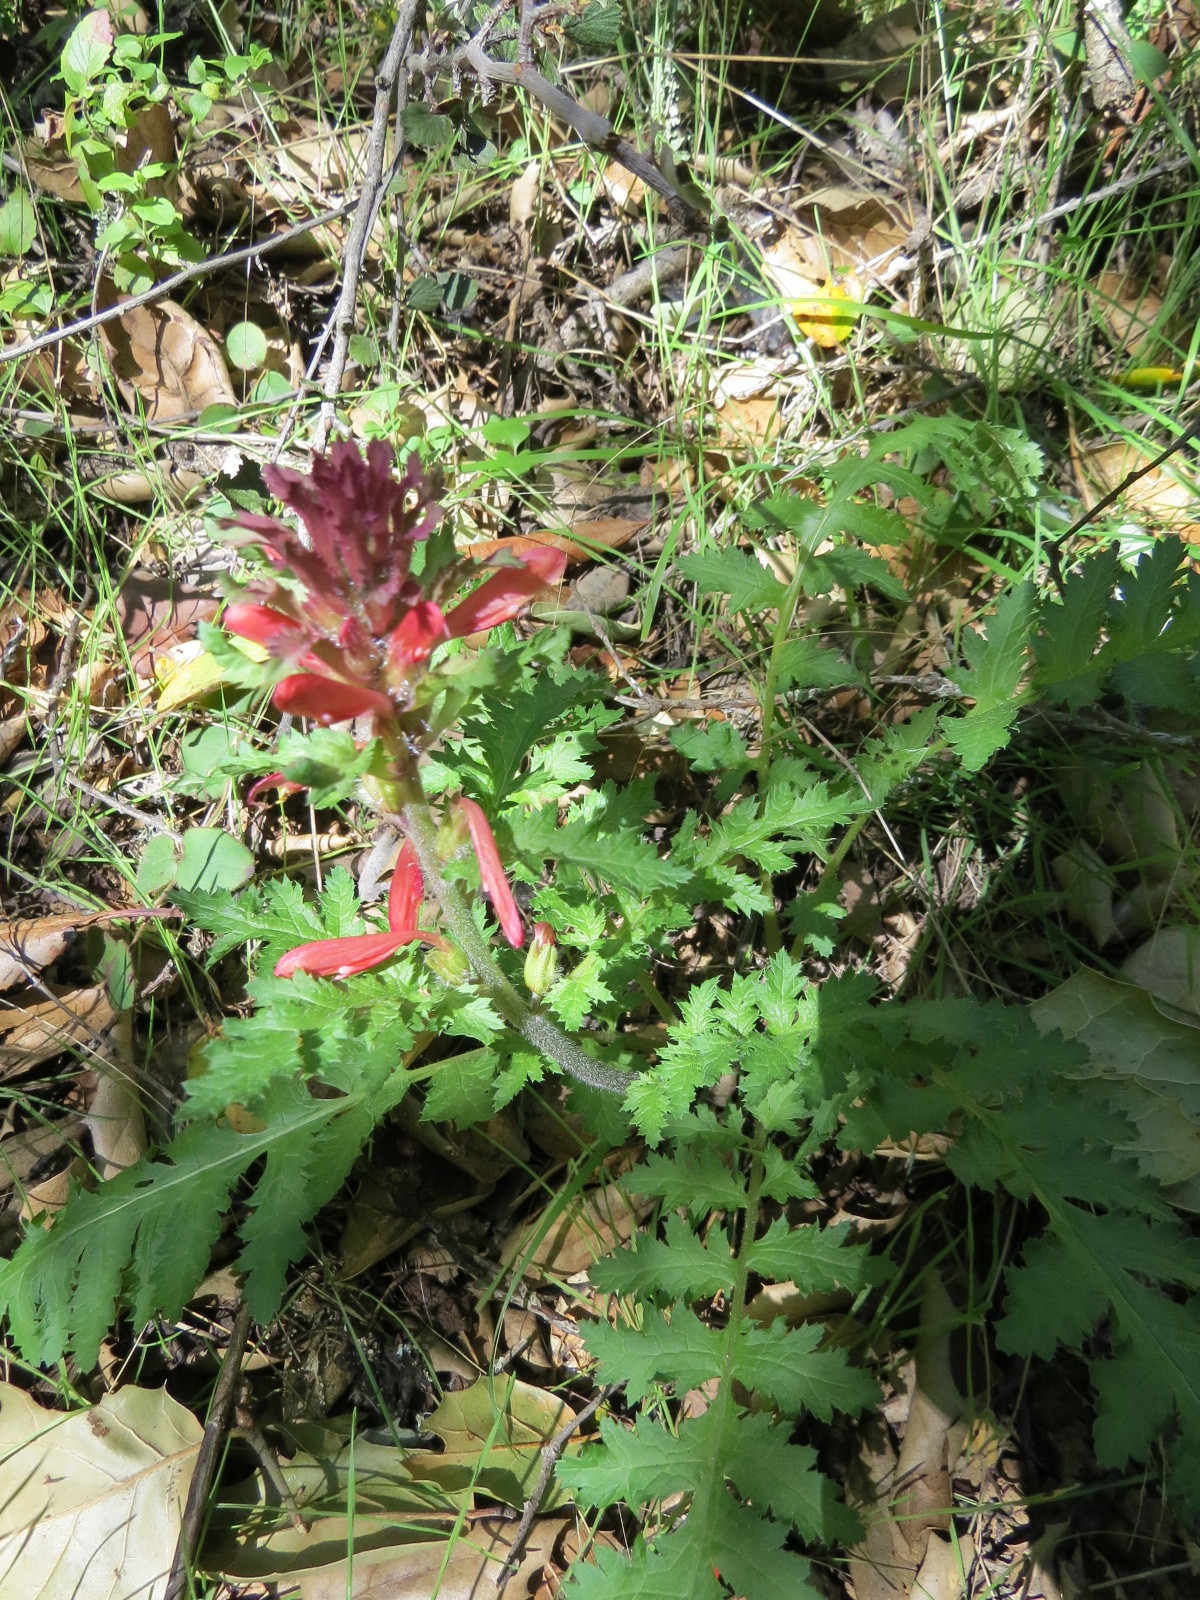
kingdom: Plantae
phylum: Tracheophyta
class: Magnoliopsida
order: Lamiales
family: Orobanchaceae
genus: Pedicularis
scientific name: Pedicularis densiflora
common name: Indian warrior
